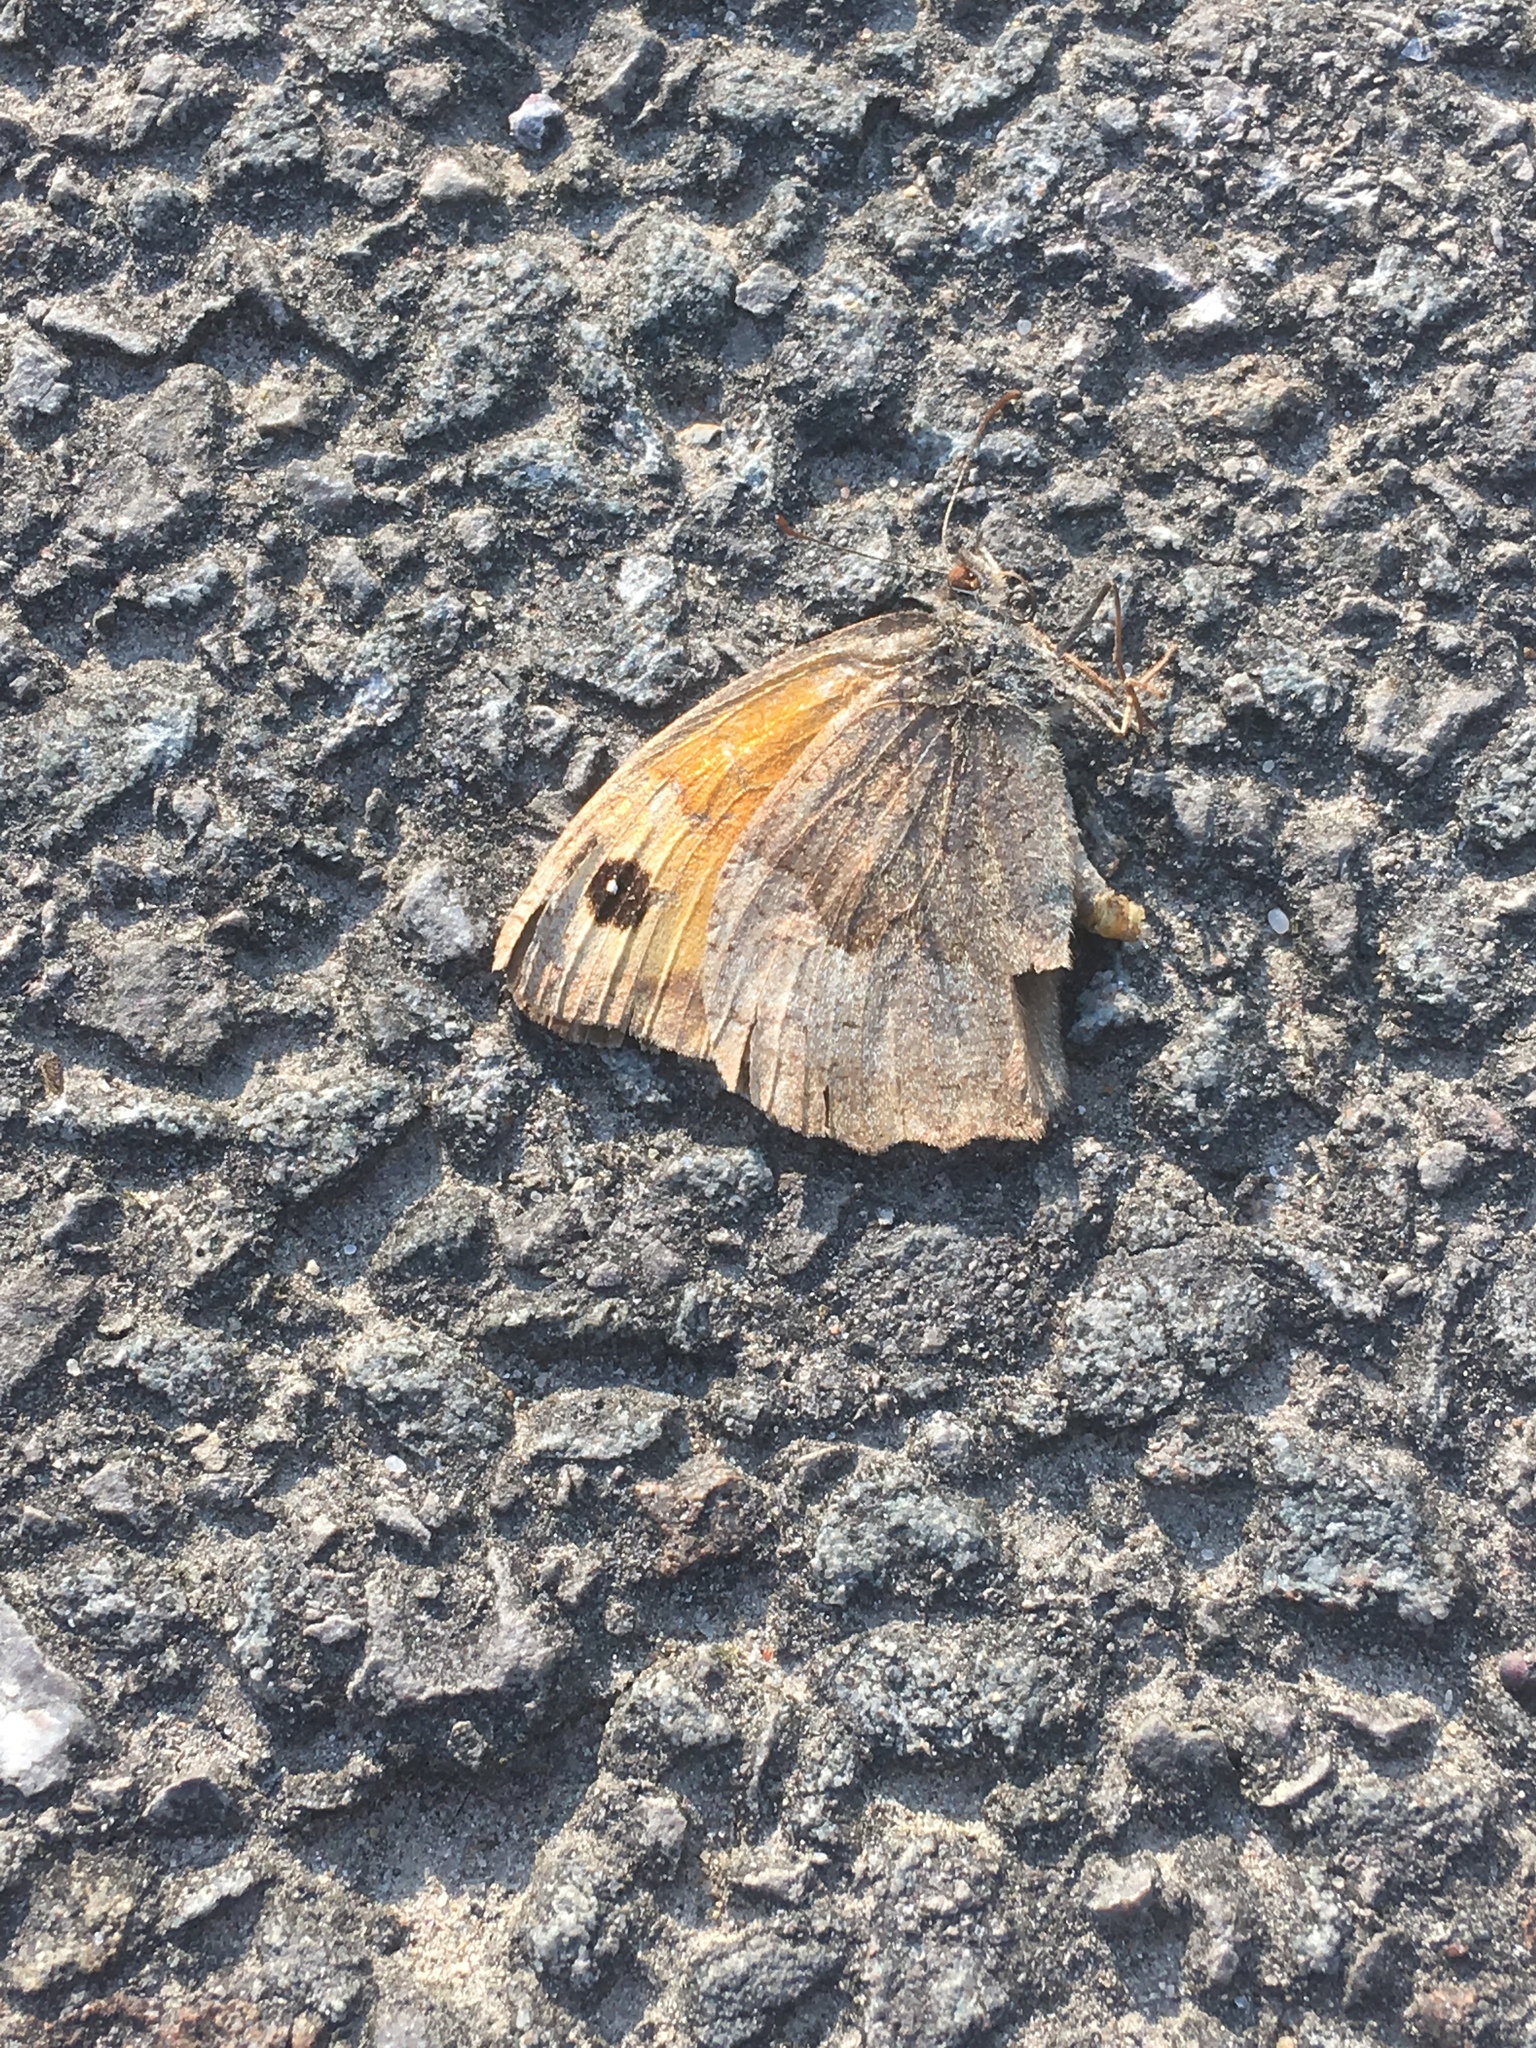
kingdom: Animalia
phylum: Arthropoda
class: Insecta
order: Lepidoptera
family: Nymphalidae
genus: Maniola
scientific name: Maniola jurtina
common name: Meadow brown
